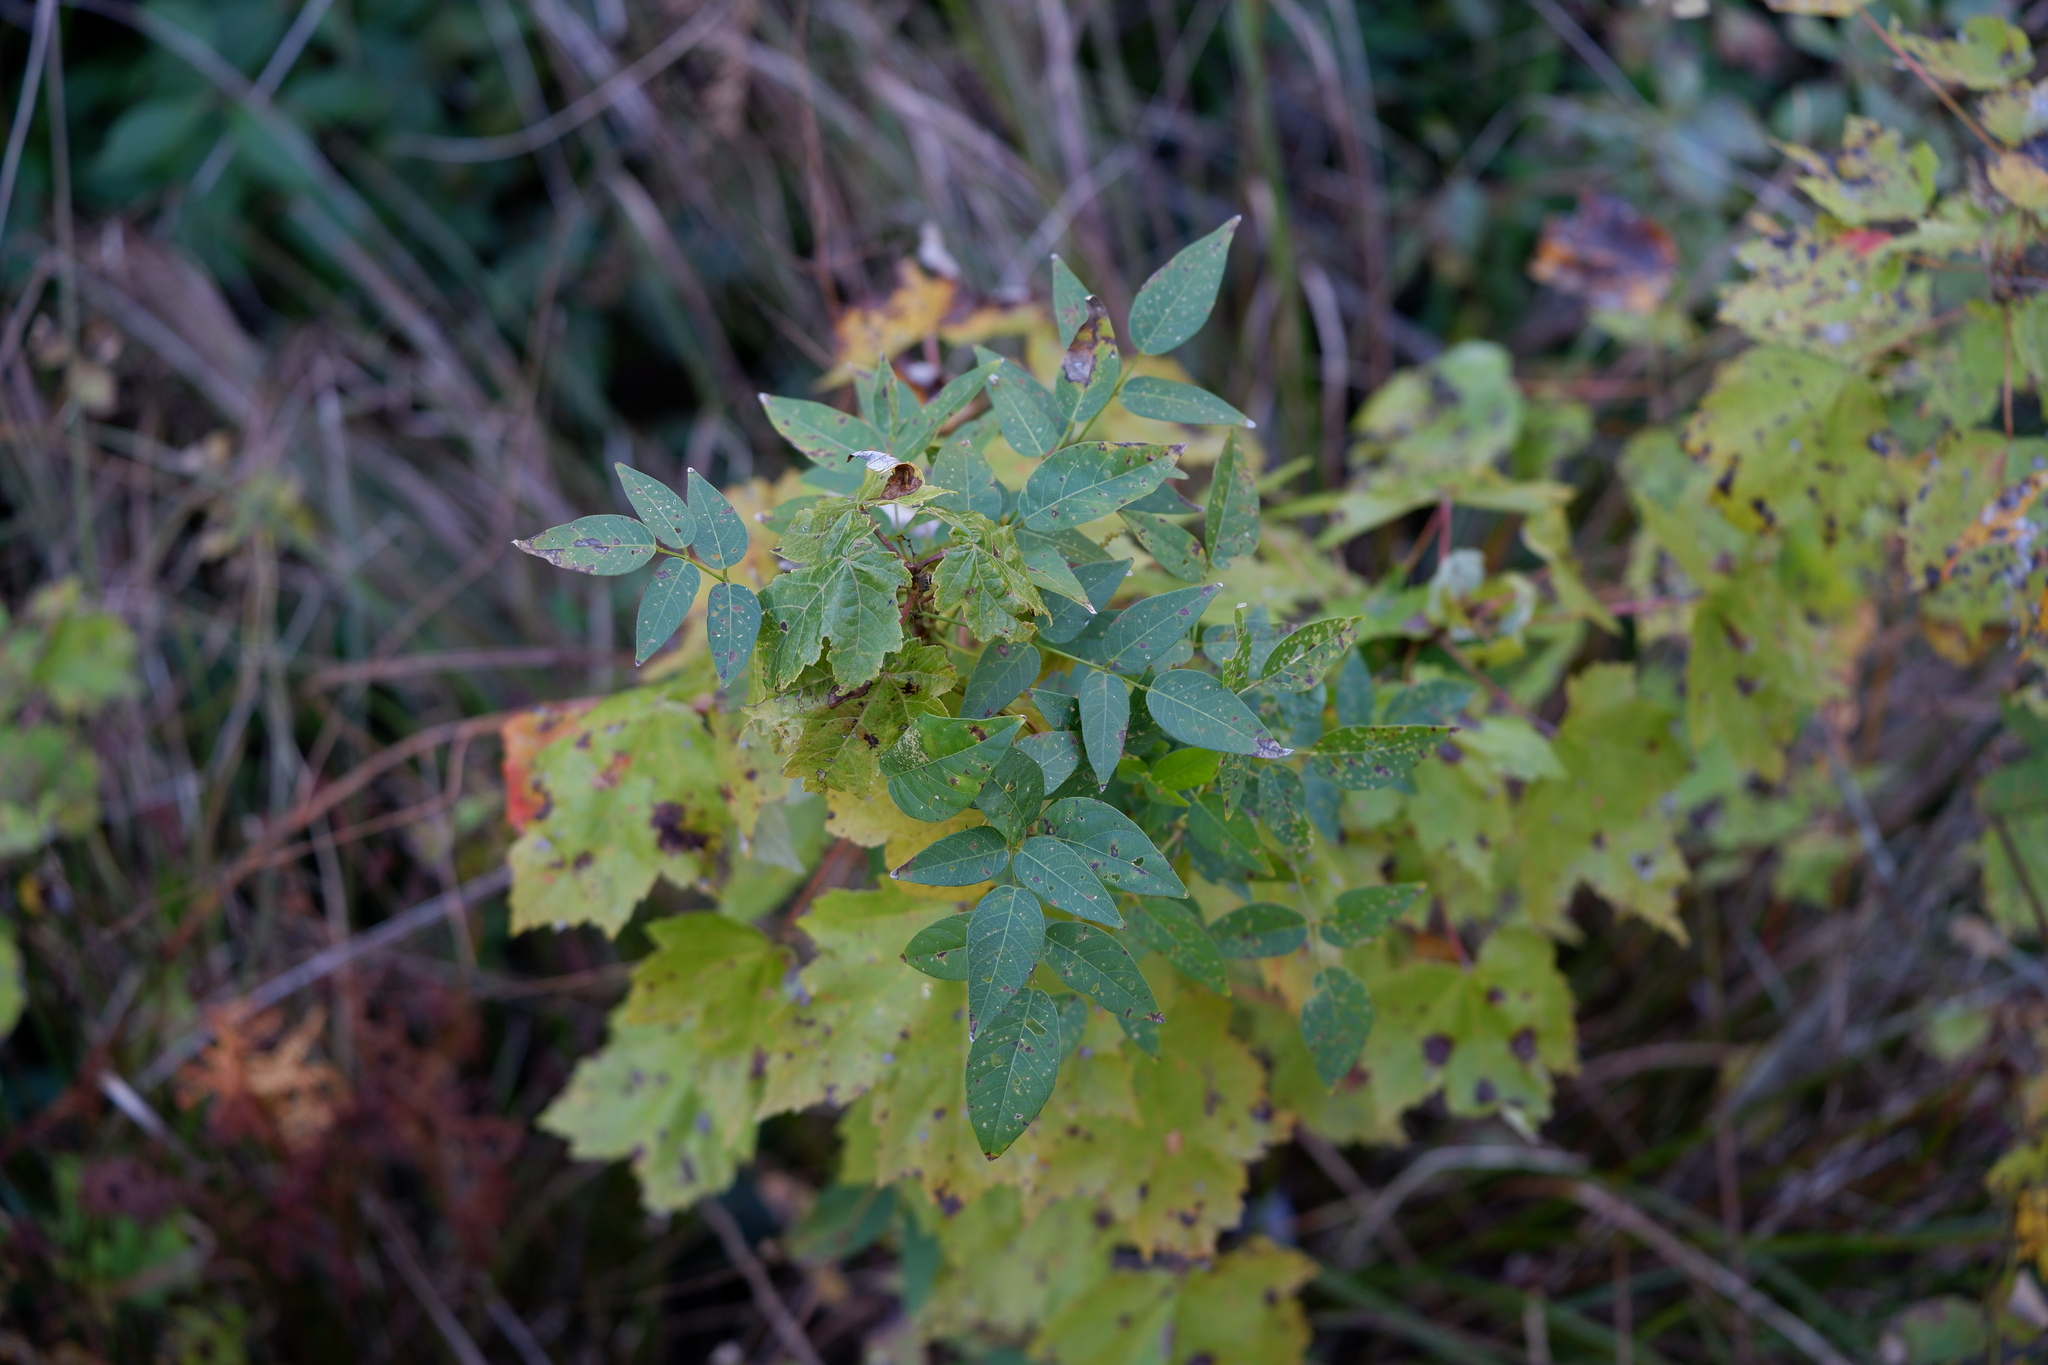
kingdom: Plantae
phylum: Tracheophyta
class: Magnoliopsida
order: Fabales
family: Fabaceae
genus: Apios
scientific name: Apios americana
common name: American potato-bean
